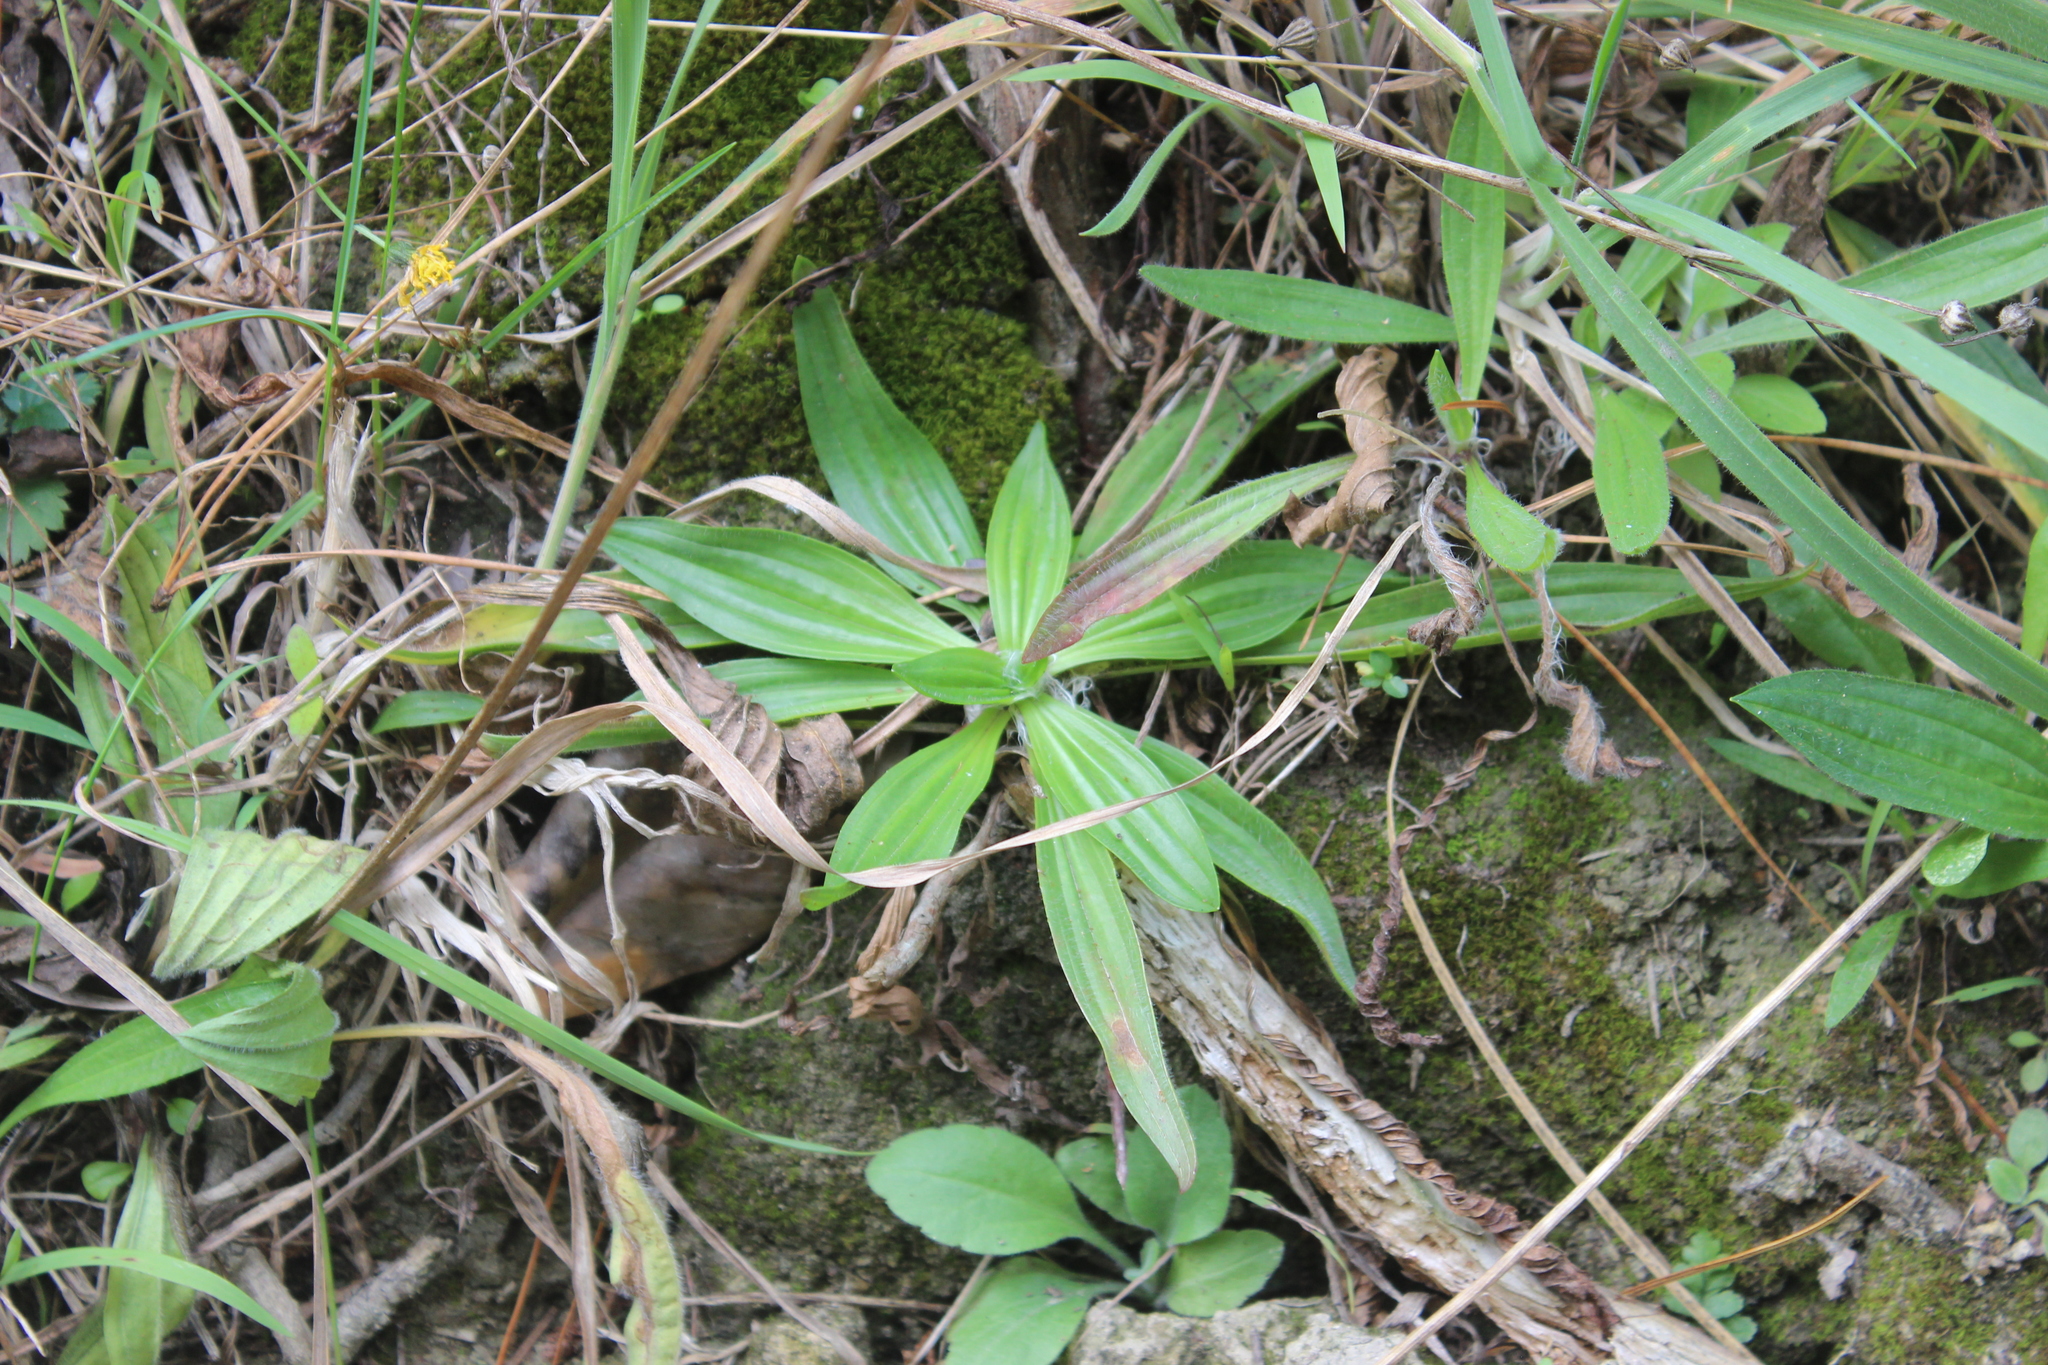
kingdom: Plantae
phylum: Tracheophyta
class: Magnoliopsida
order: Lamiales
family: Plantaginaceae
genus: Plantago
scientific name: Plantago lanceolata
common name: Ribwort plantain
